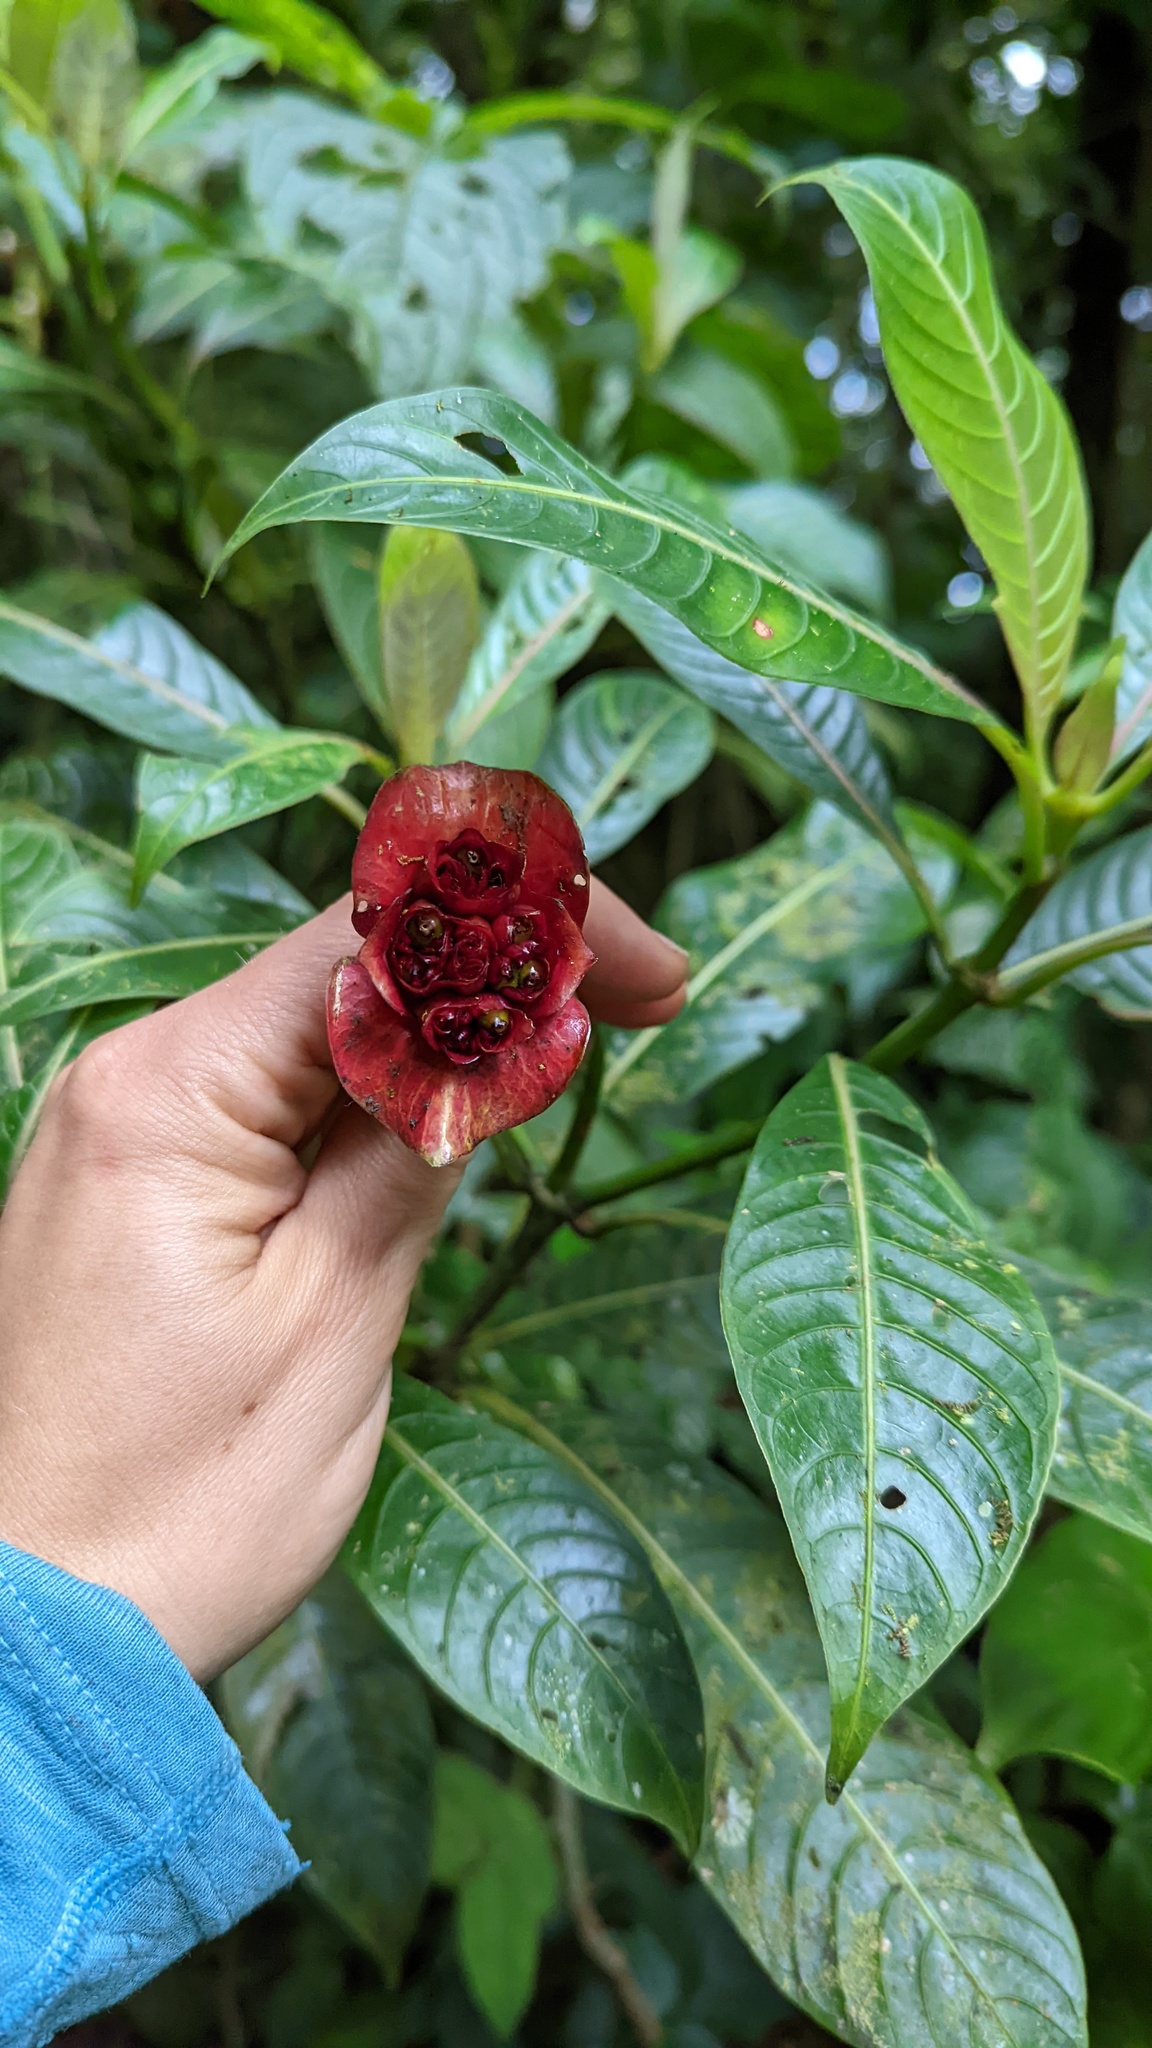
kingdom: Plantae
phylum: Tracheophyta
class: Magnoliopsida
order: Gentianales
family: Rubiaceae
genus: Palicourea
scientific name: Palicourea elata
